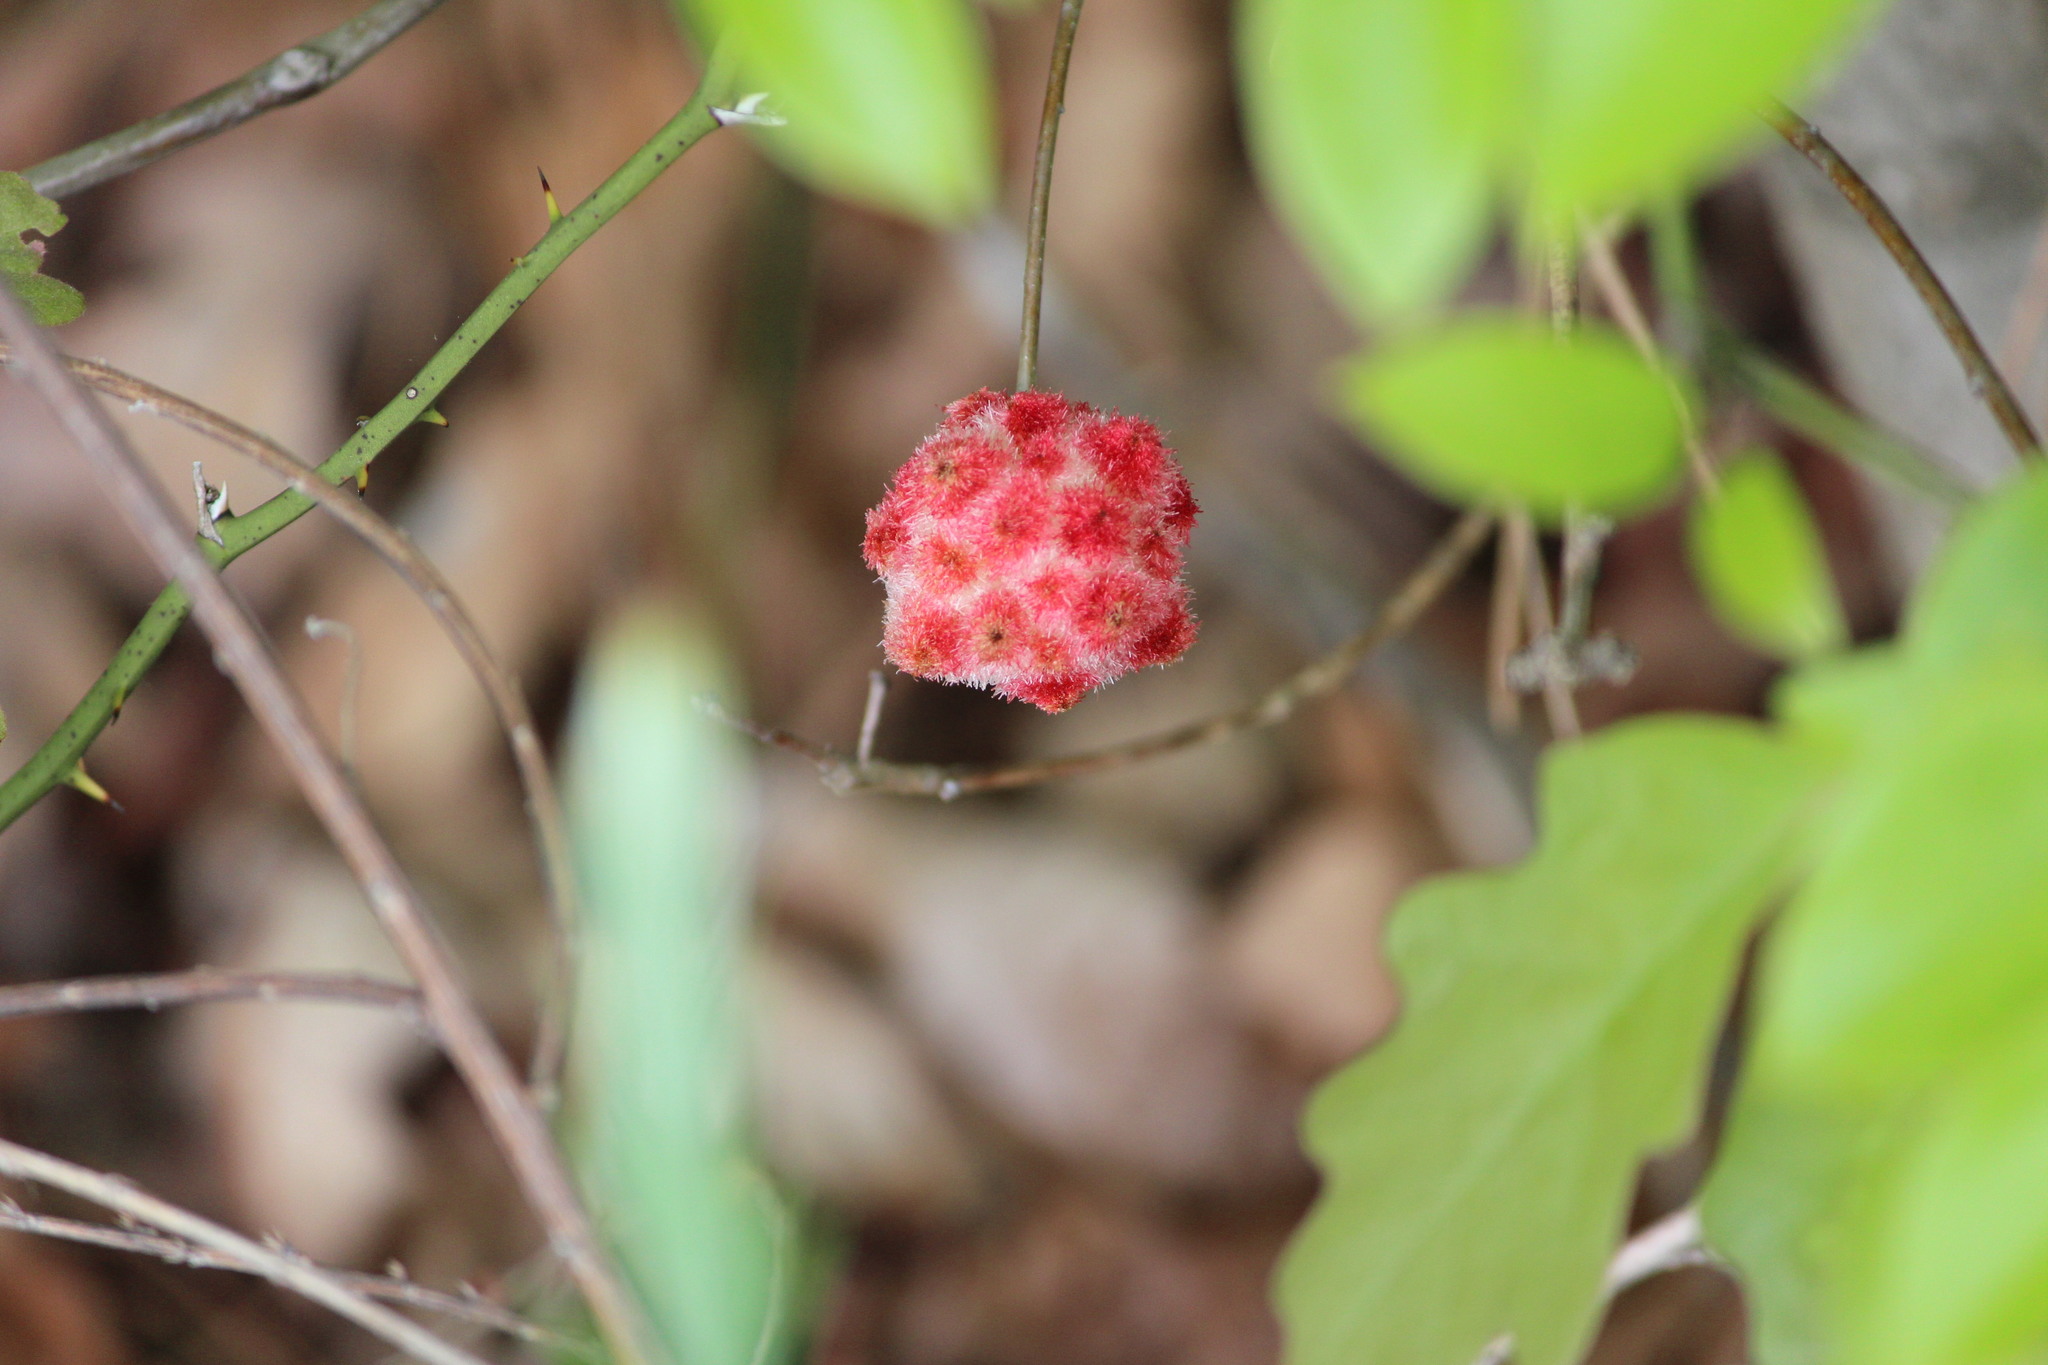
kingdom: Animalia
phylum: Arthropoda
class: Insecta
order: Hymenoptera
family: Cynipidae
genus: Callirhytis
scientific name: Callirhytis
